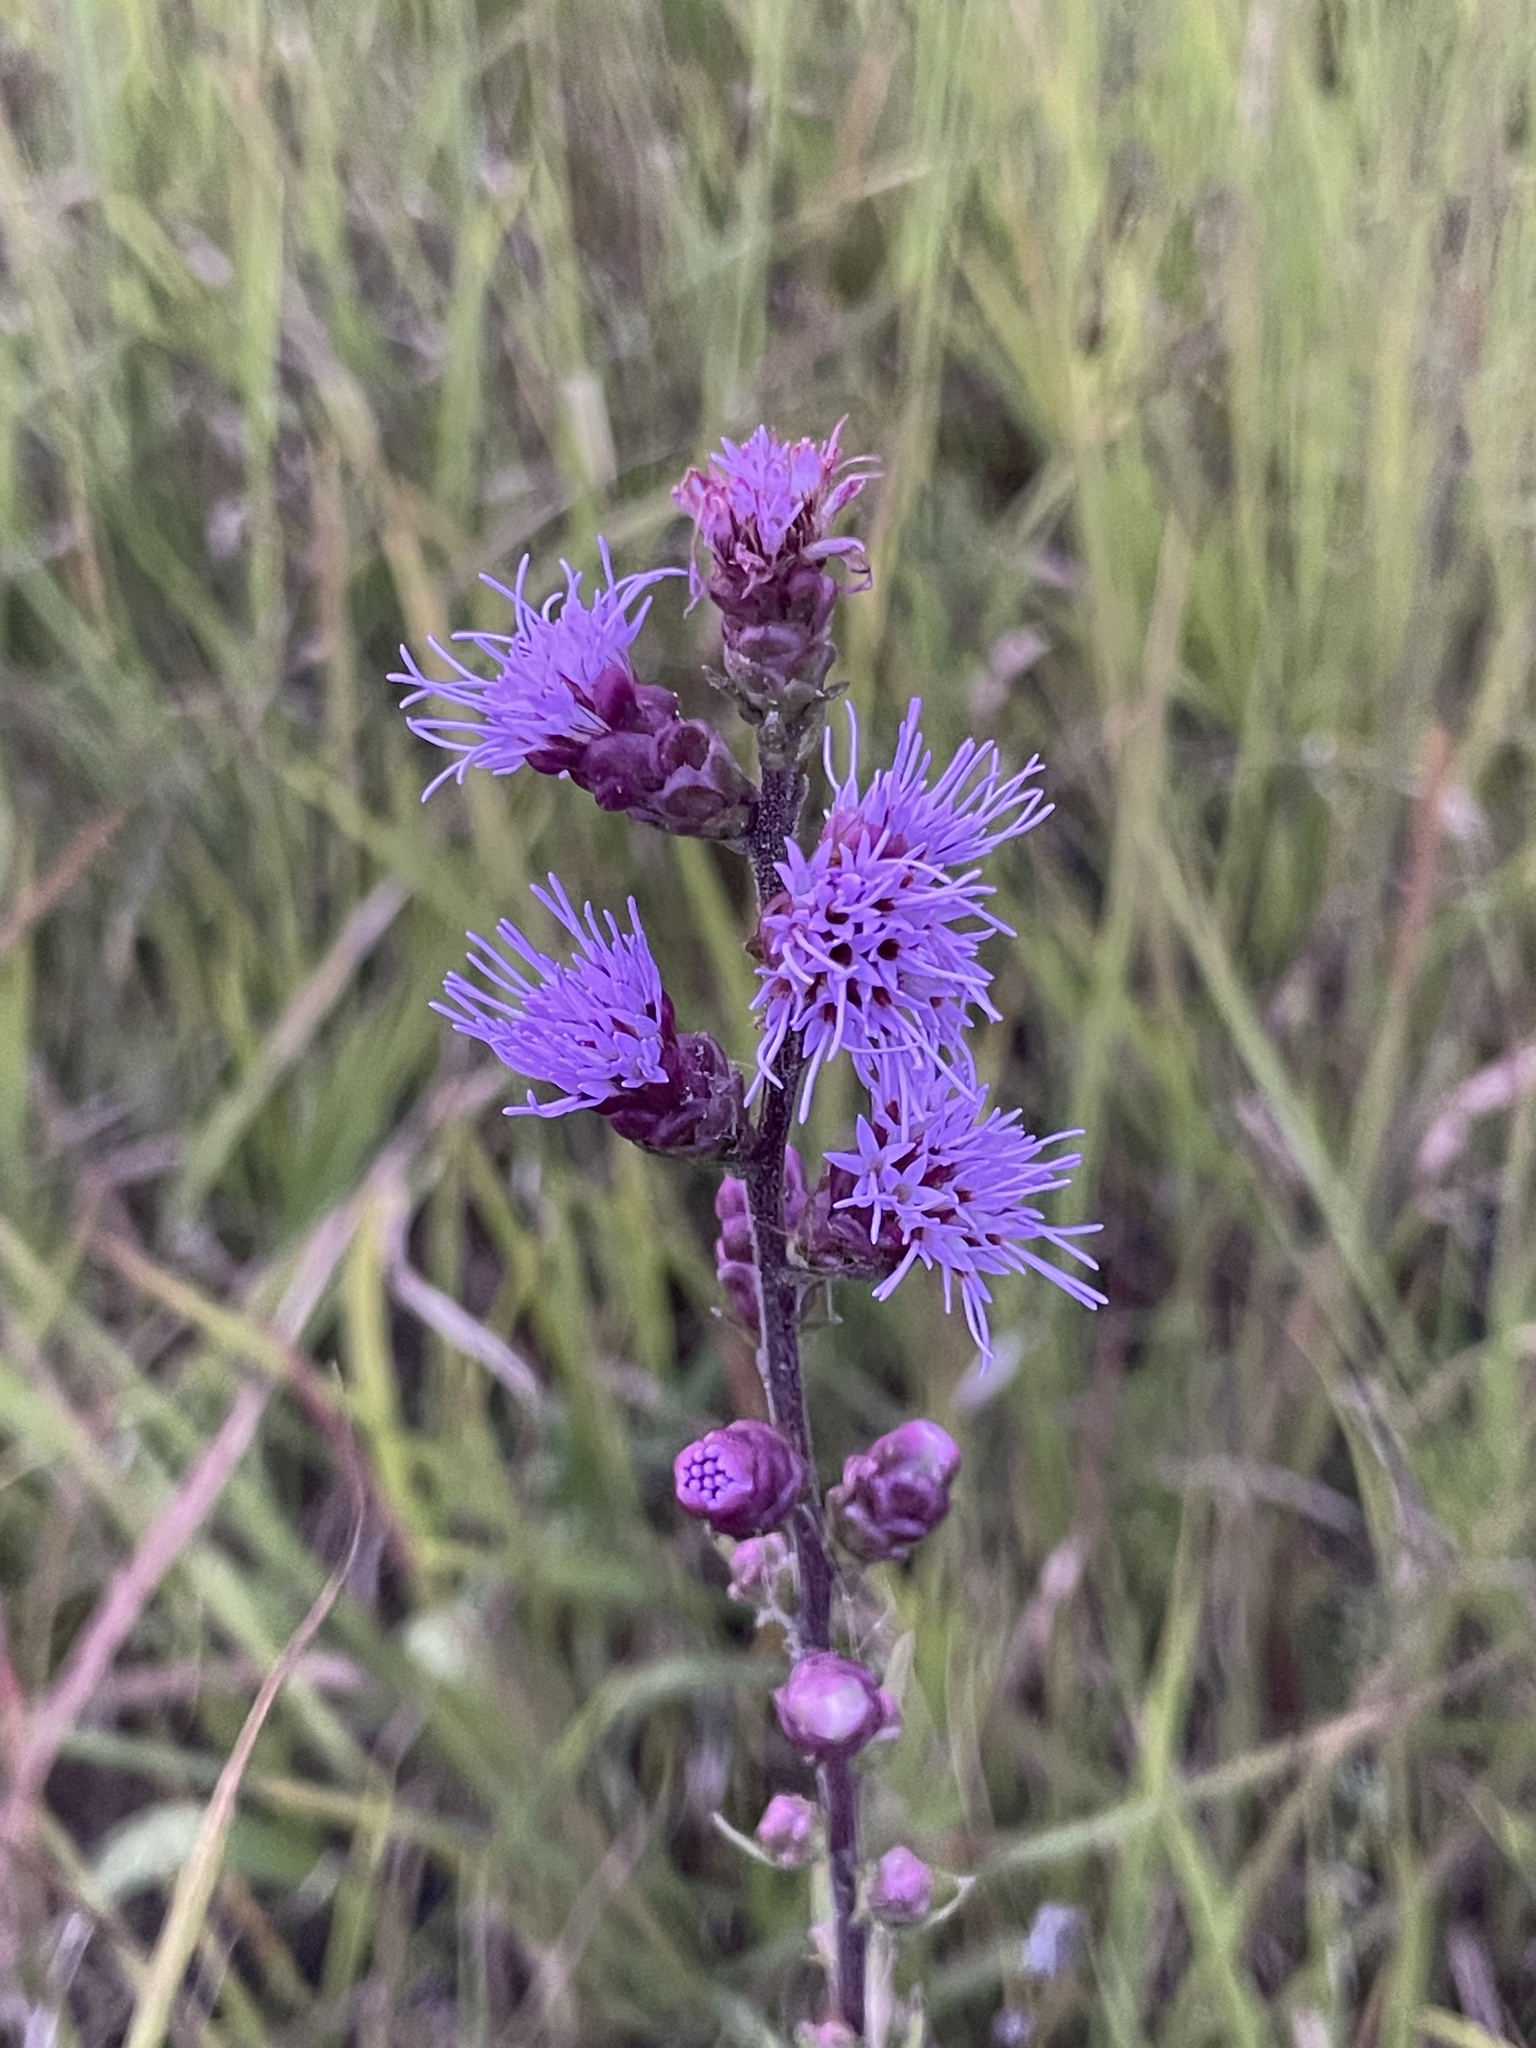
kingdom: Plantae
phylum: Tracheophyta
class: Magnoliopsida
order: Asterales
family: Asteraceae
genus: Liatris
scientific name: Liatris aspera
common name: Lacerate blazing-star
